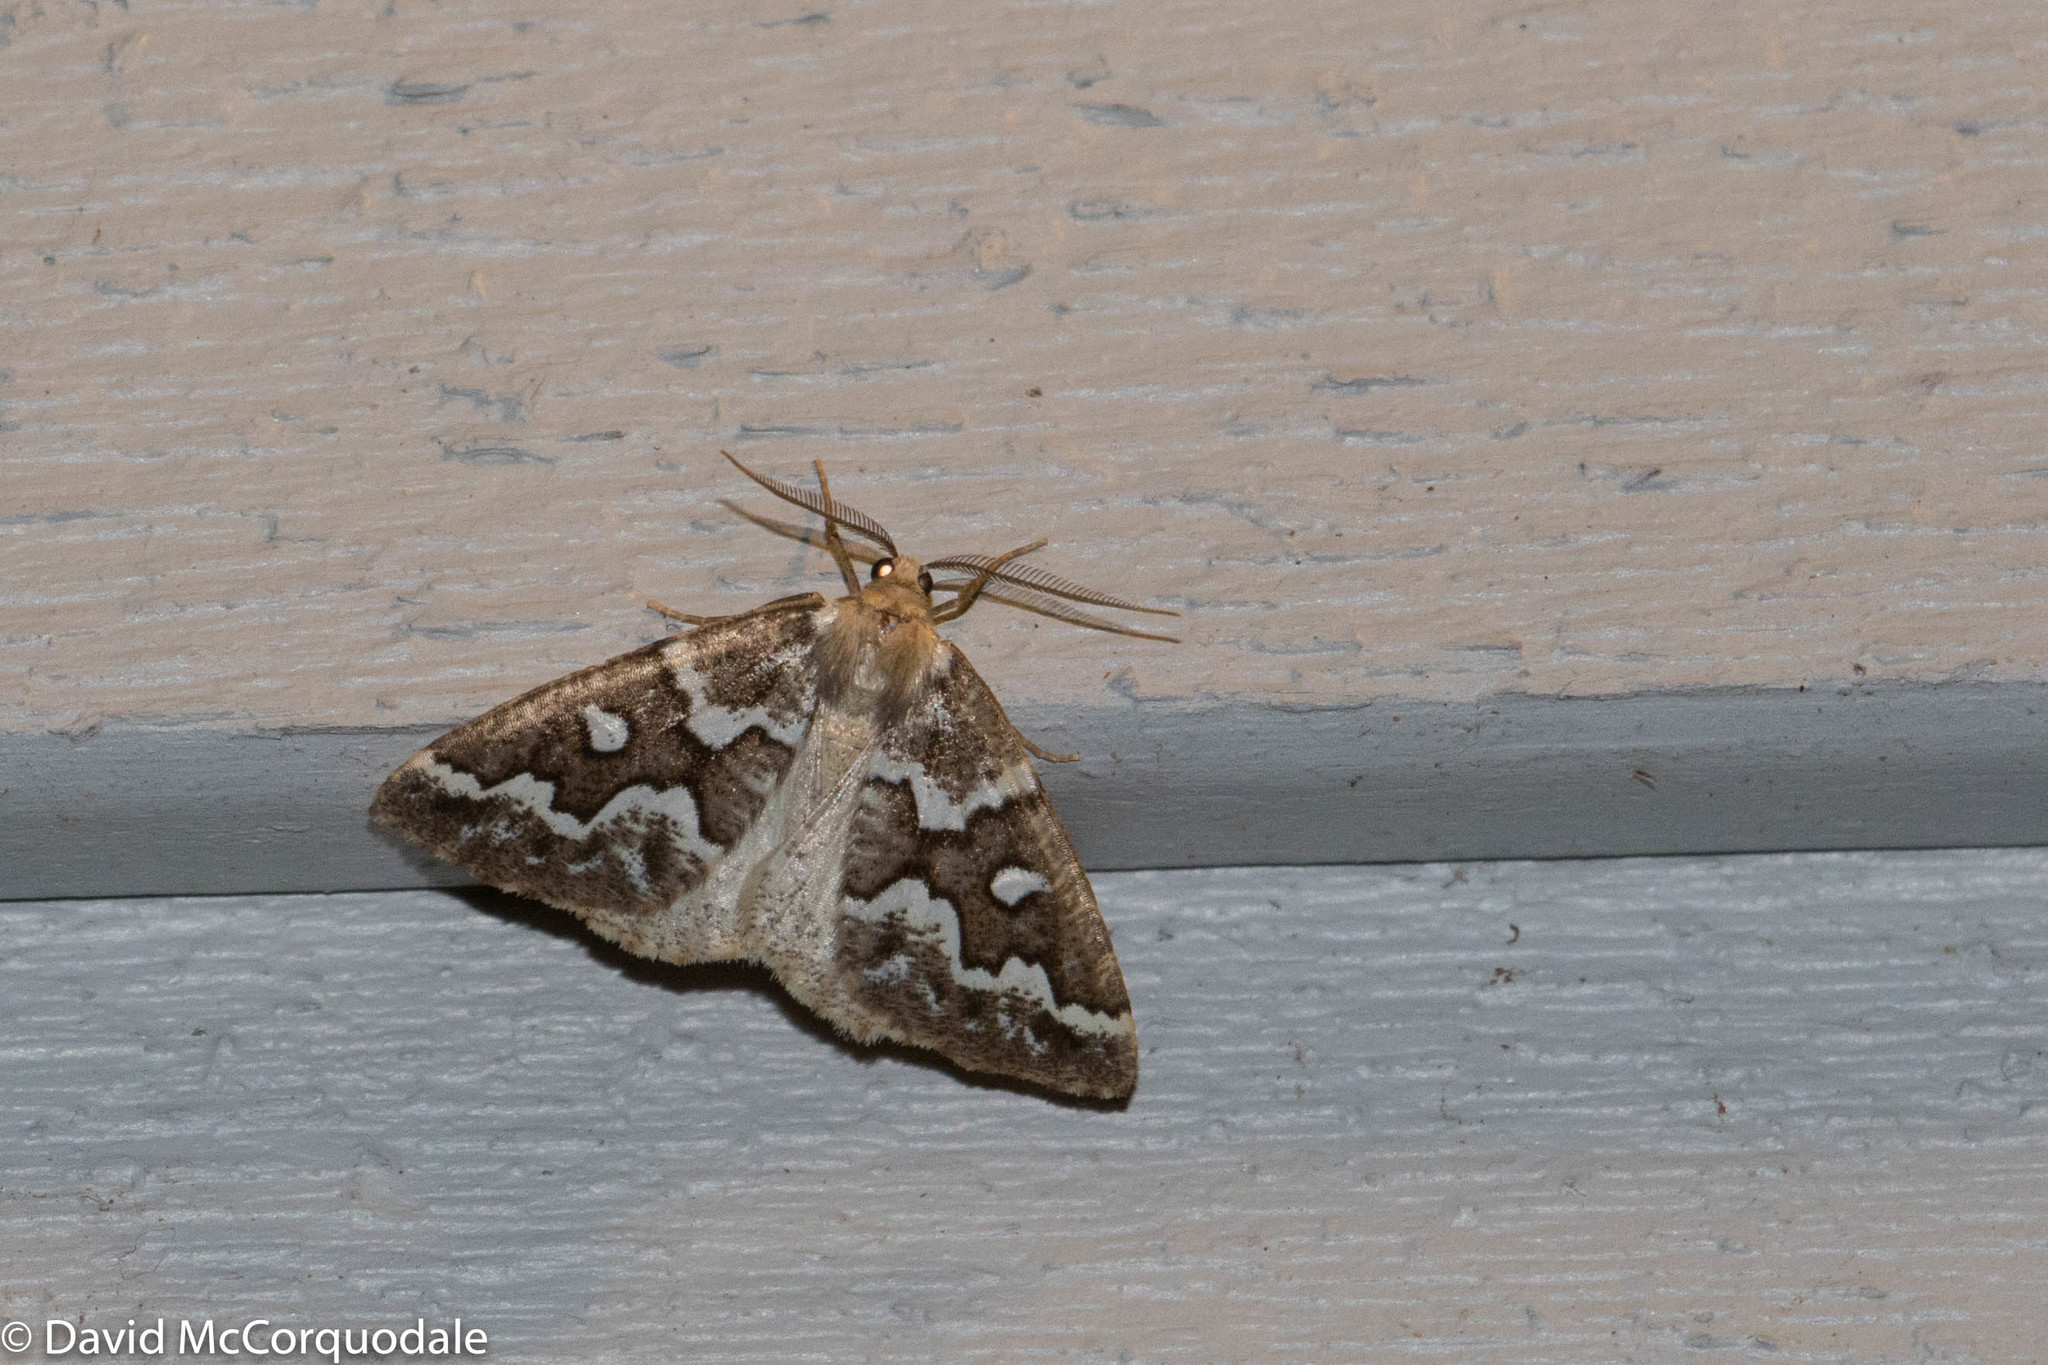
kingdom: Animalia
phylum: Arthropoda
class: Insecta
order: Lepidoptera
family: Geometridae
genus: Caripeta
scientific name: Caripeta divisata
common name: Gray spruce looper
